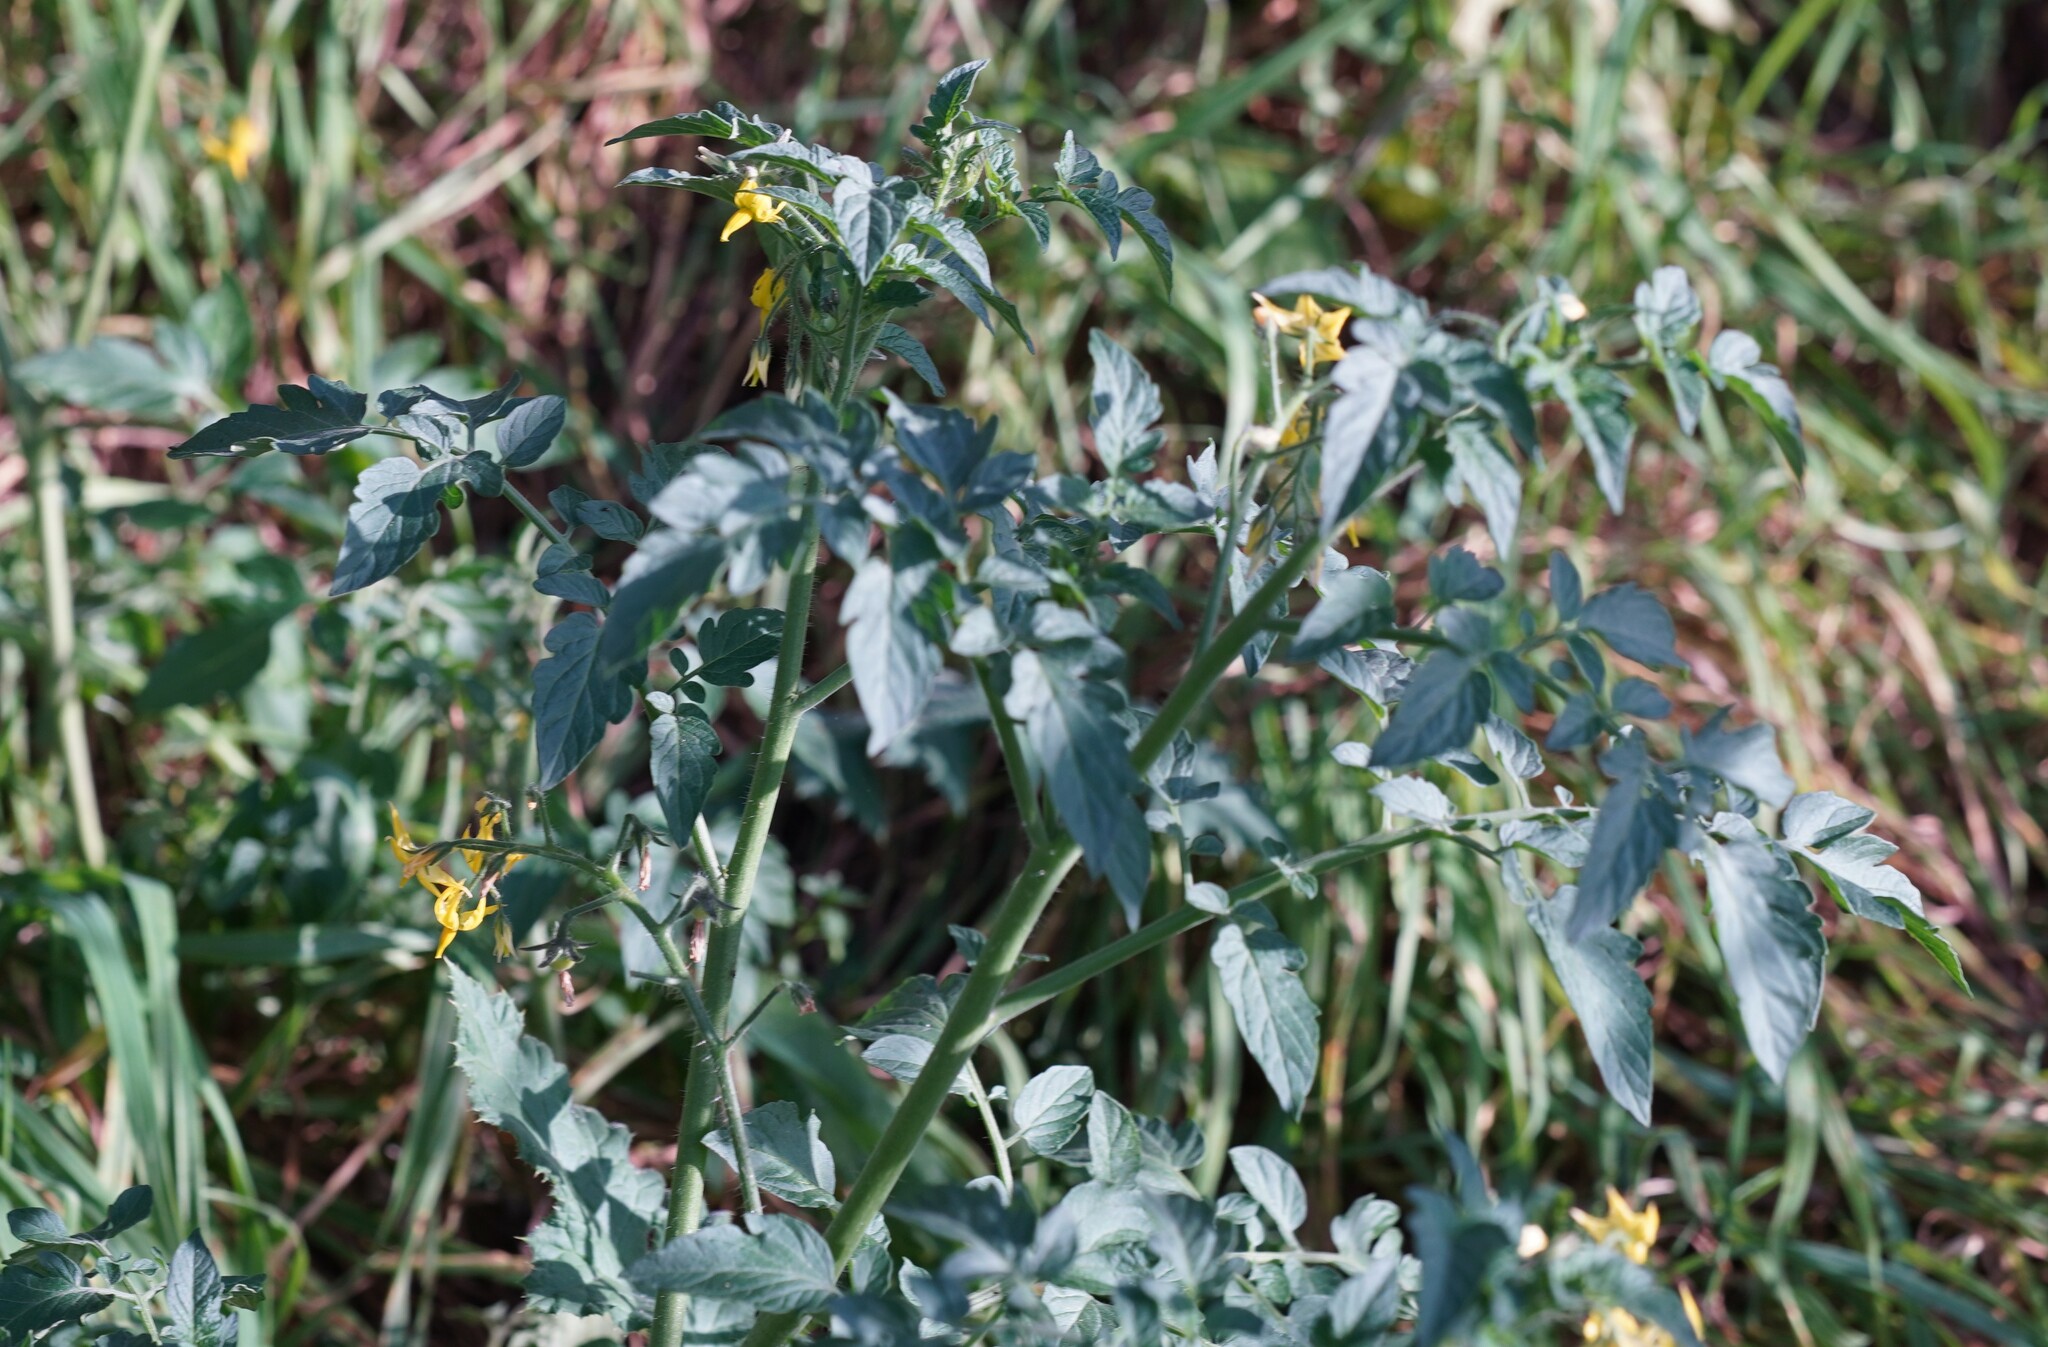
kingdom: Plantae
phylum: Tracheophyta
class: Magnoliopsida
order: Solanales
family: Solanaceae
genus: Solanum
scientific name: Solanum lycopersicum
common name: Garden tomato
